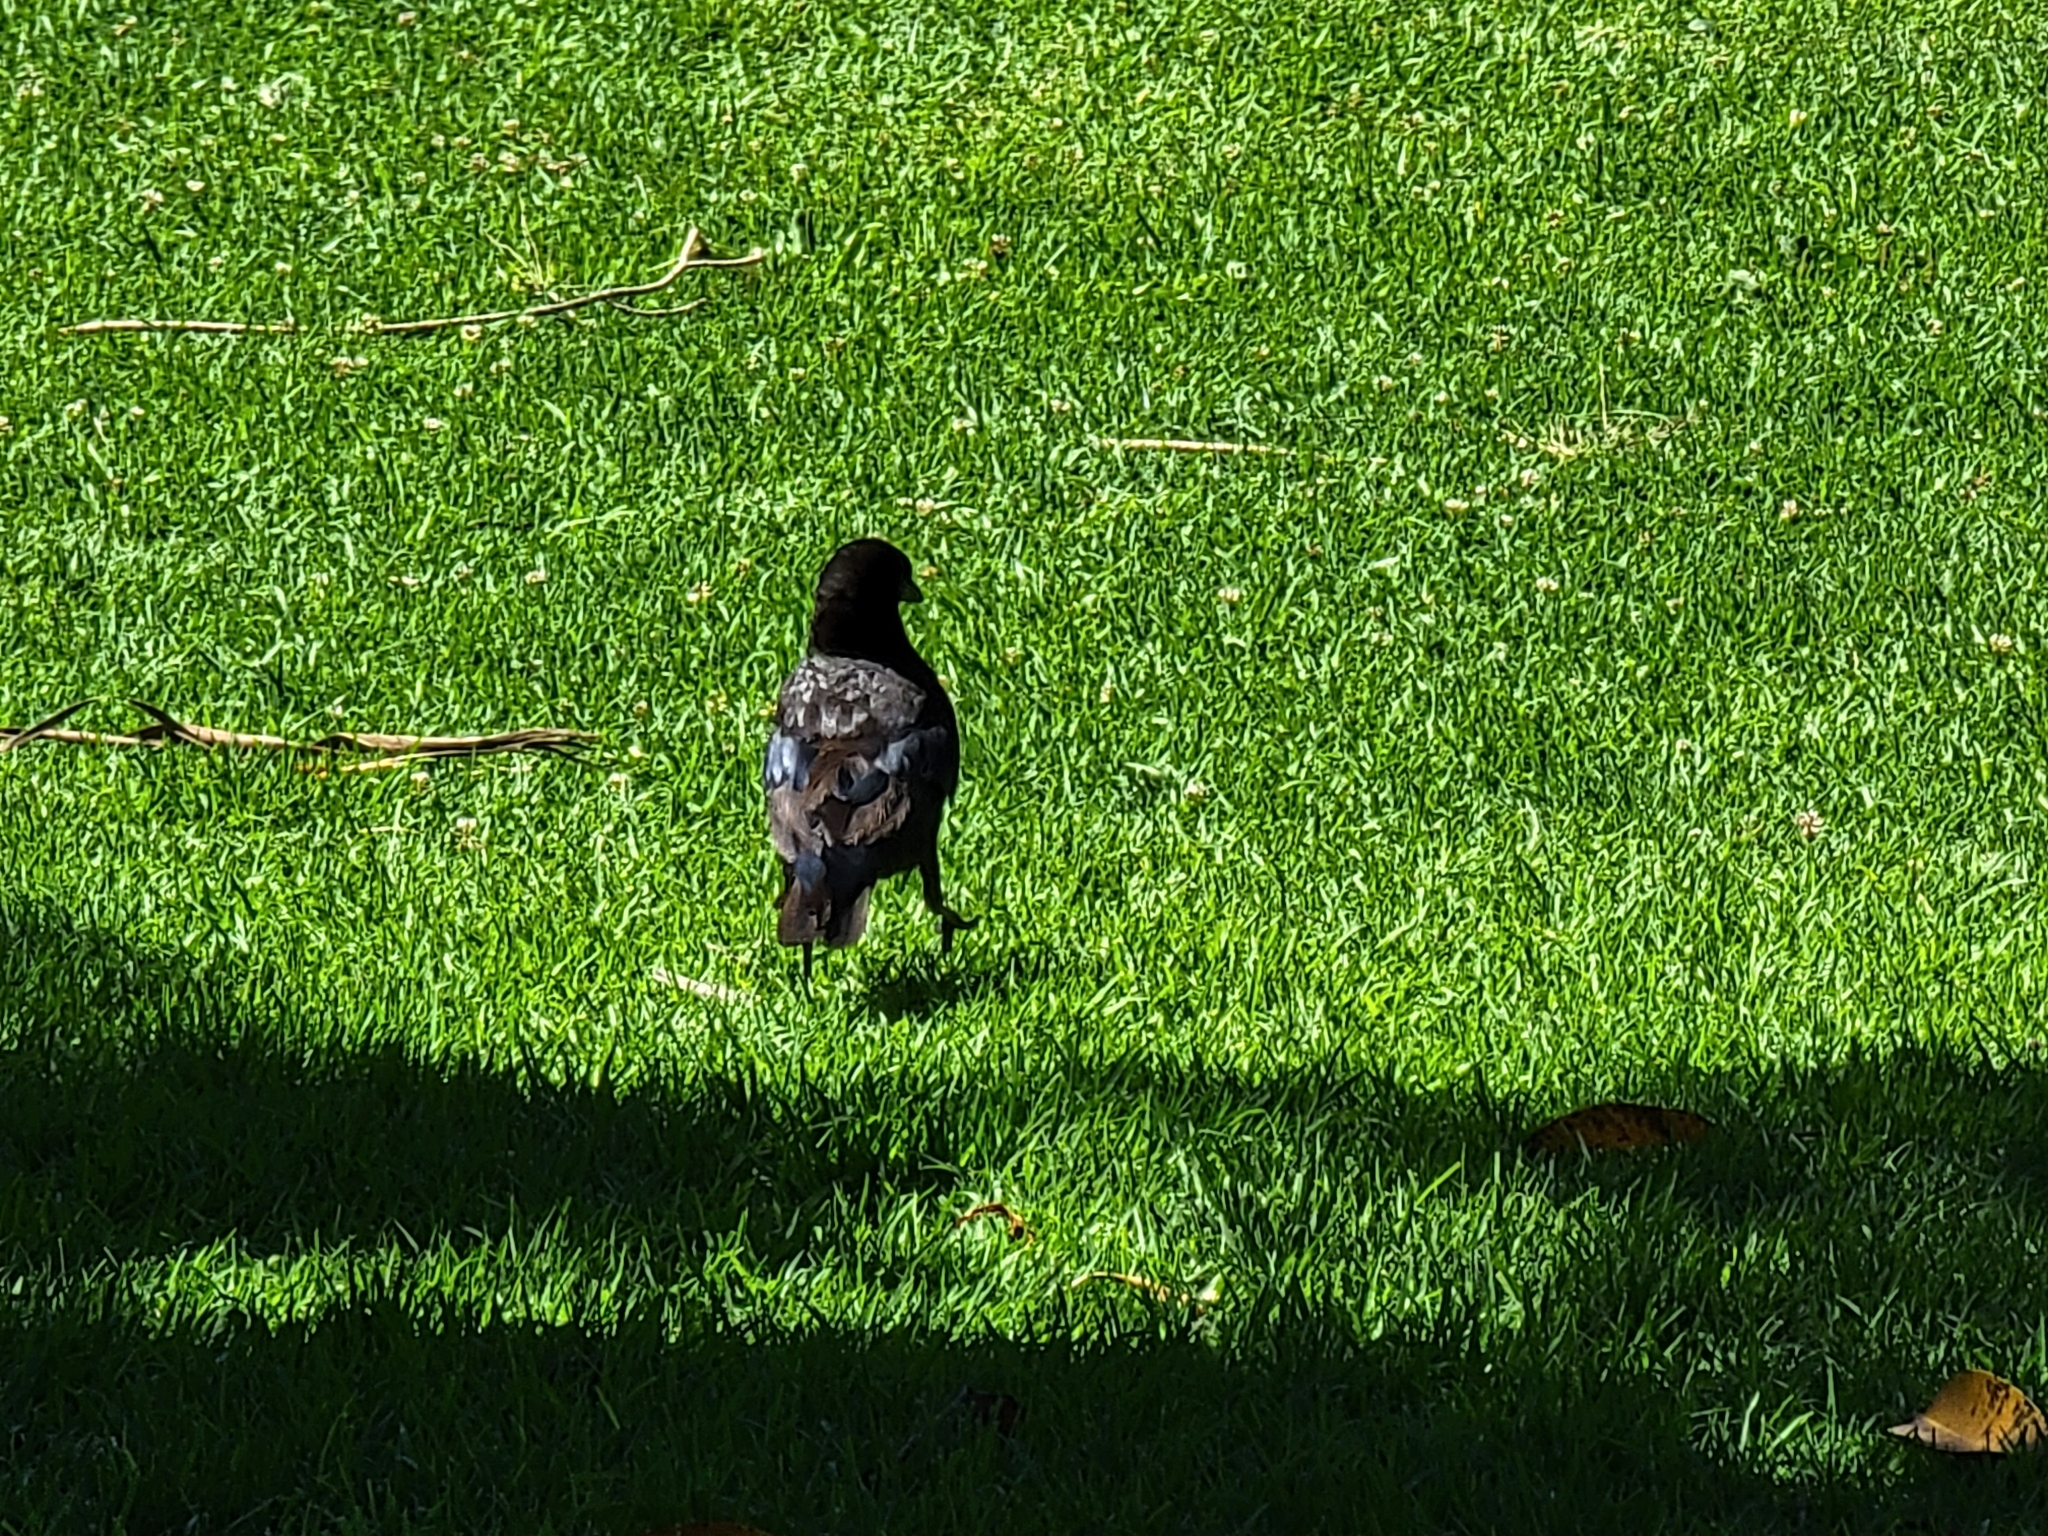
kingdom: Animalia
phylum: Chordata
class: Aves
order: Passeriformes
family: Corvidae
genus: Corvus
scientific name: Corvus brachyrhynchos
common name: American crow
